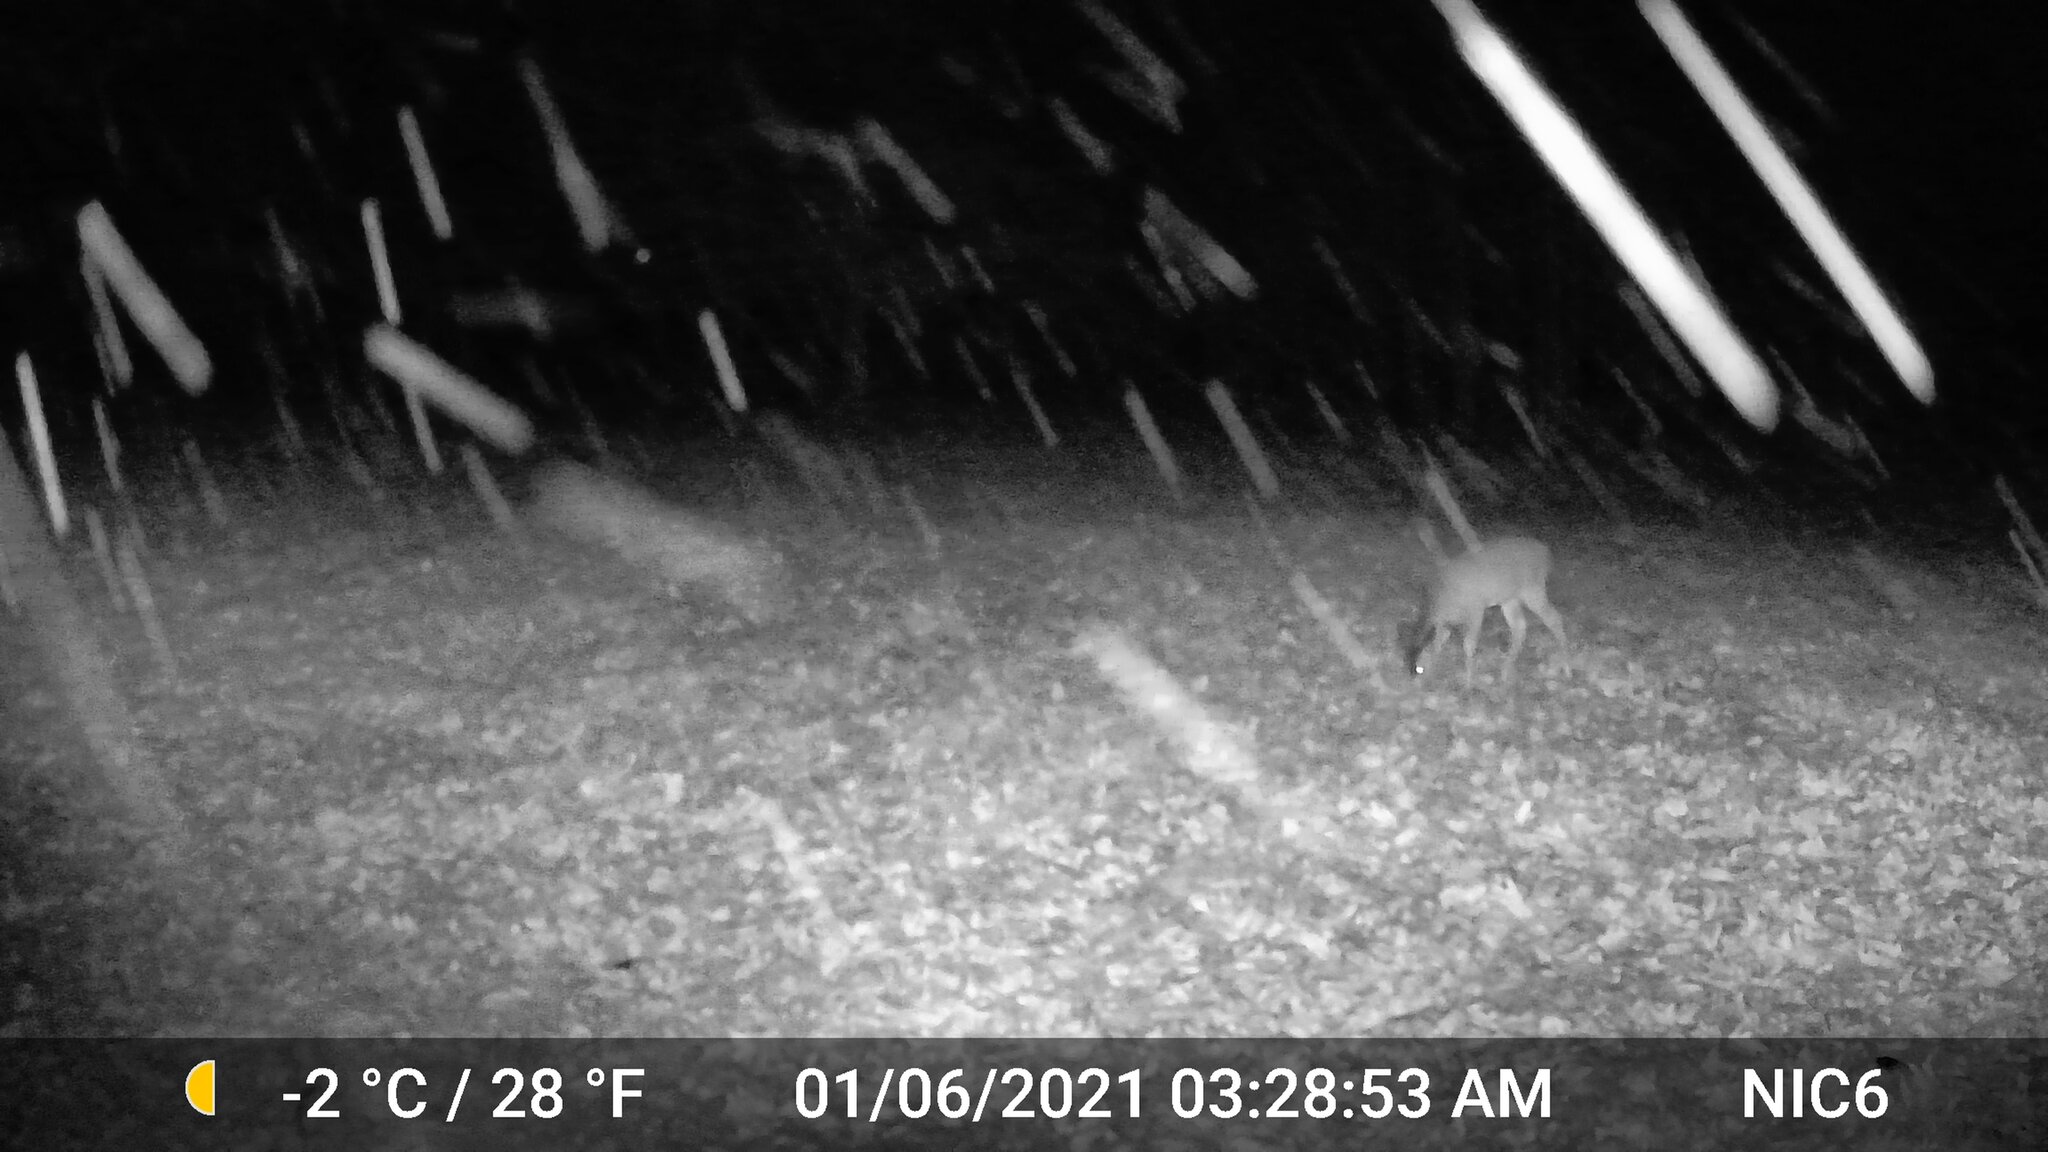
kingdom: Animalia
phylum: Chordata
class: Mammalia
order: Artiodactyla
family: Cervidae
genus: Odocoileus
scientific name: Odocoileus virginianus
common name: White-tailed deer
